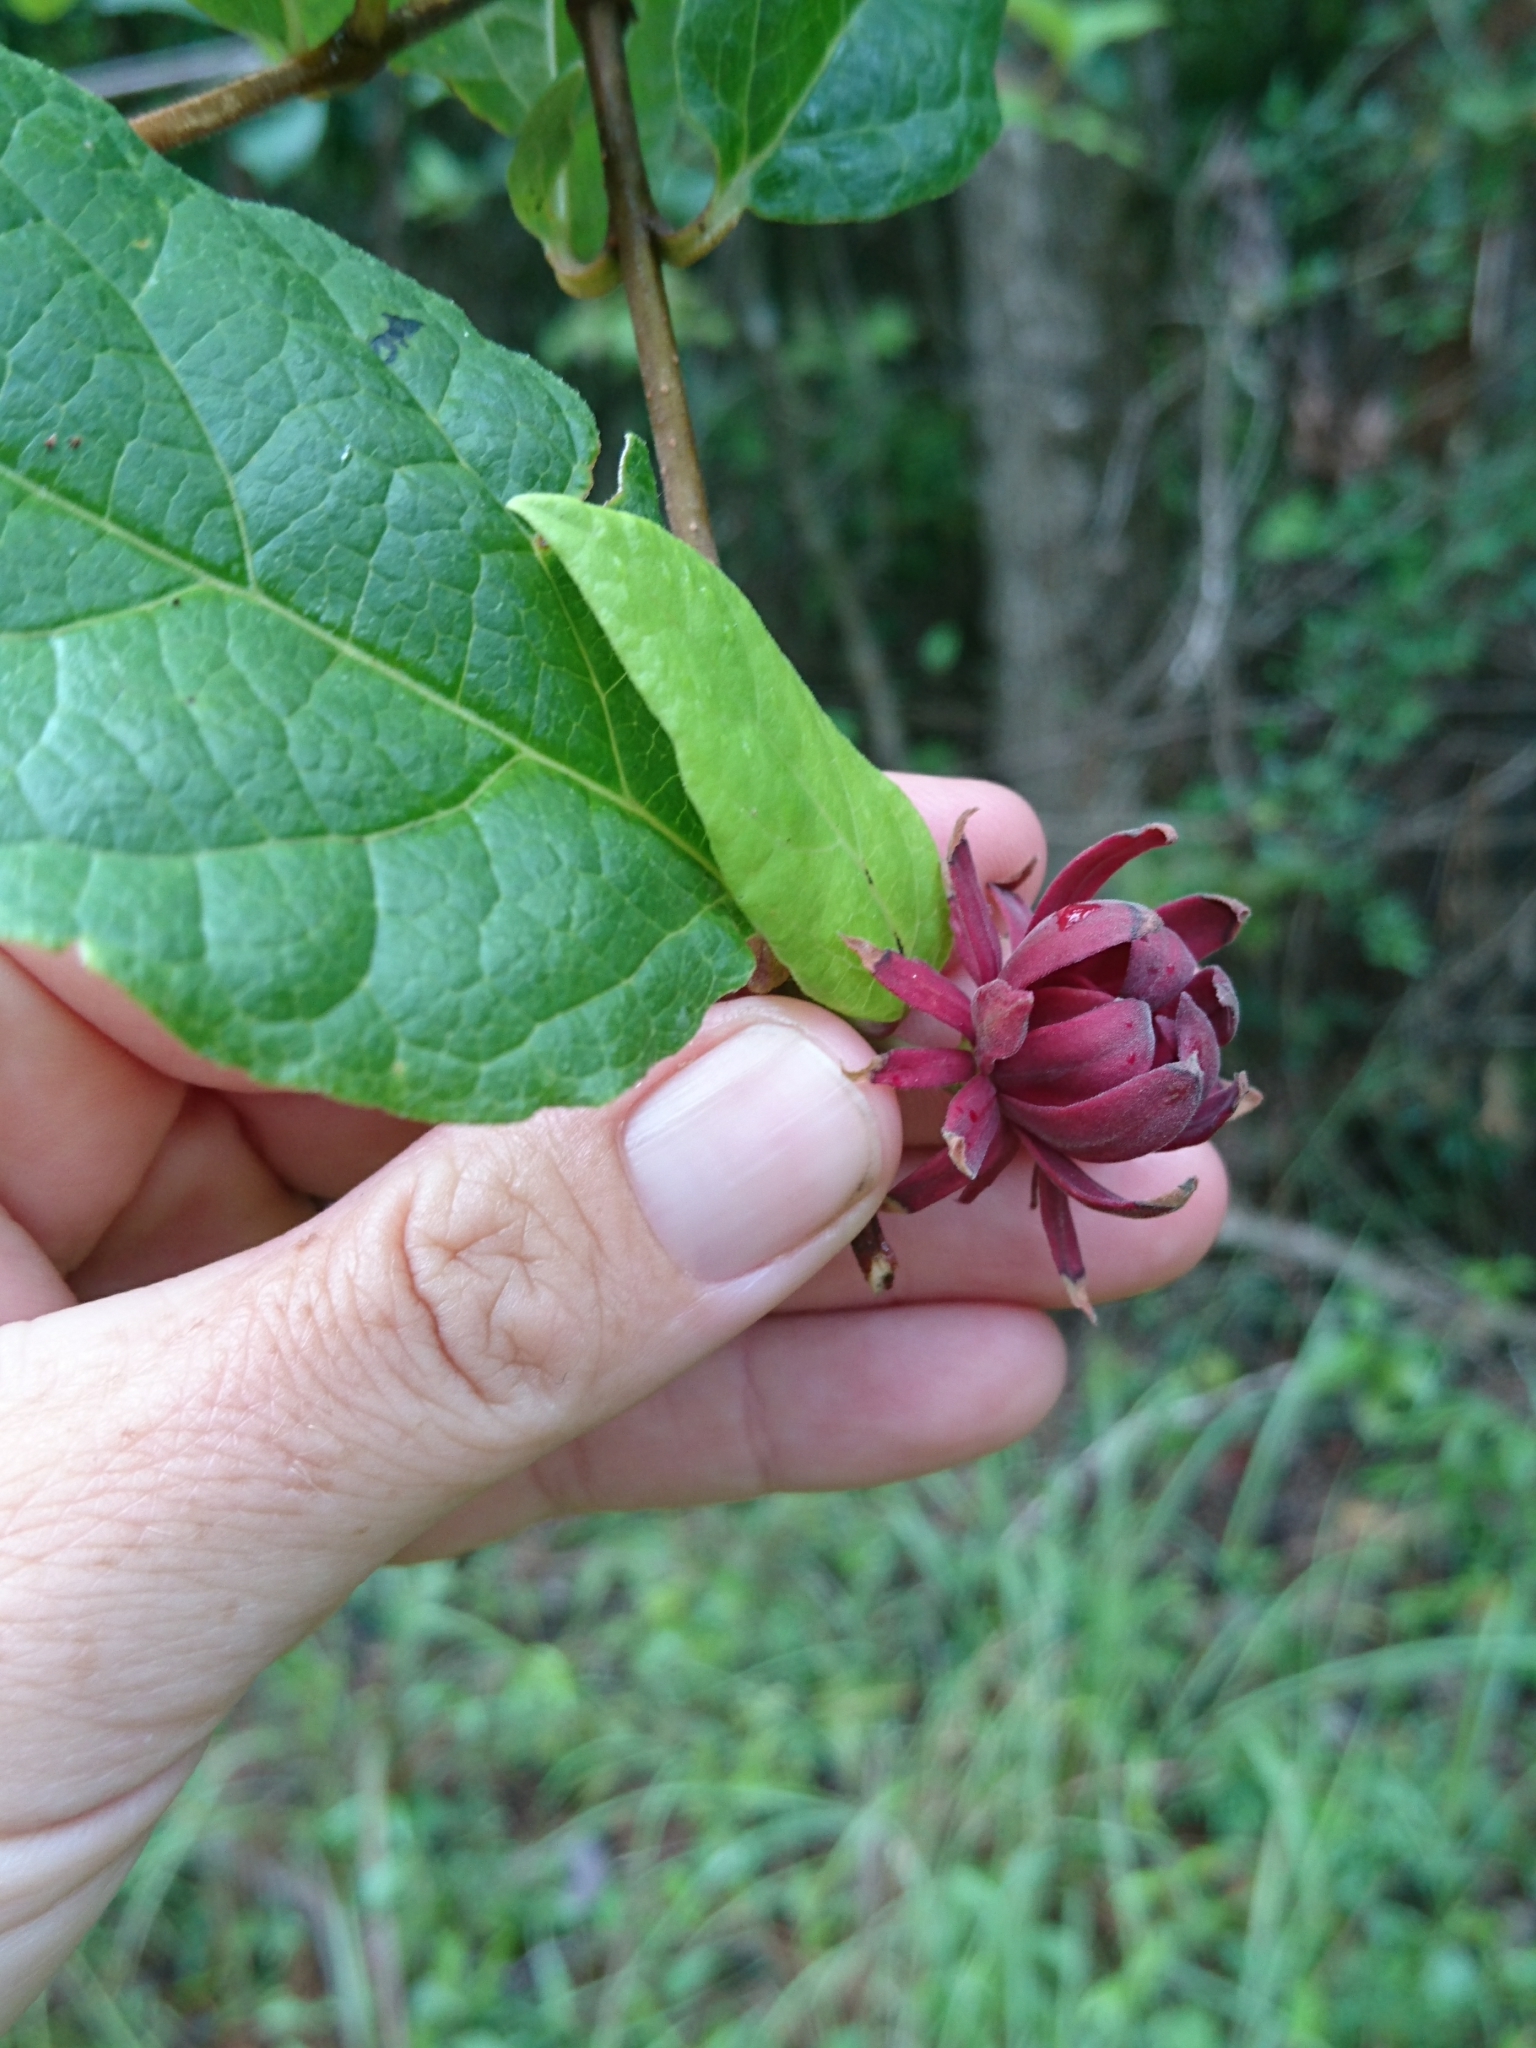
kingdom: Plantae
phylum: Tracheophyta
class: Magnoliopsida
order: Laurales
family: Calycanthaceae
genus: Calycanthus
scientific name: Calycanthus floridus
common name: Carolina-allspice
